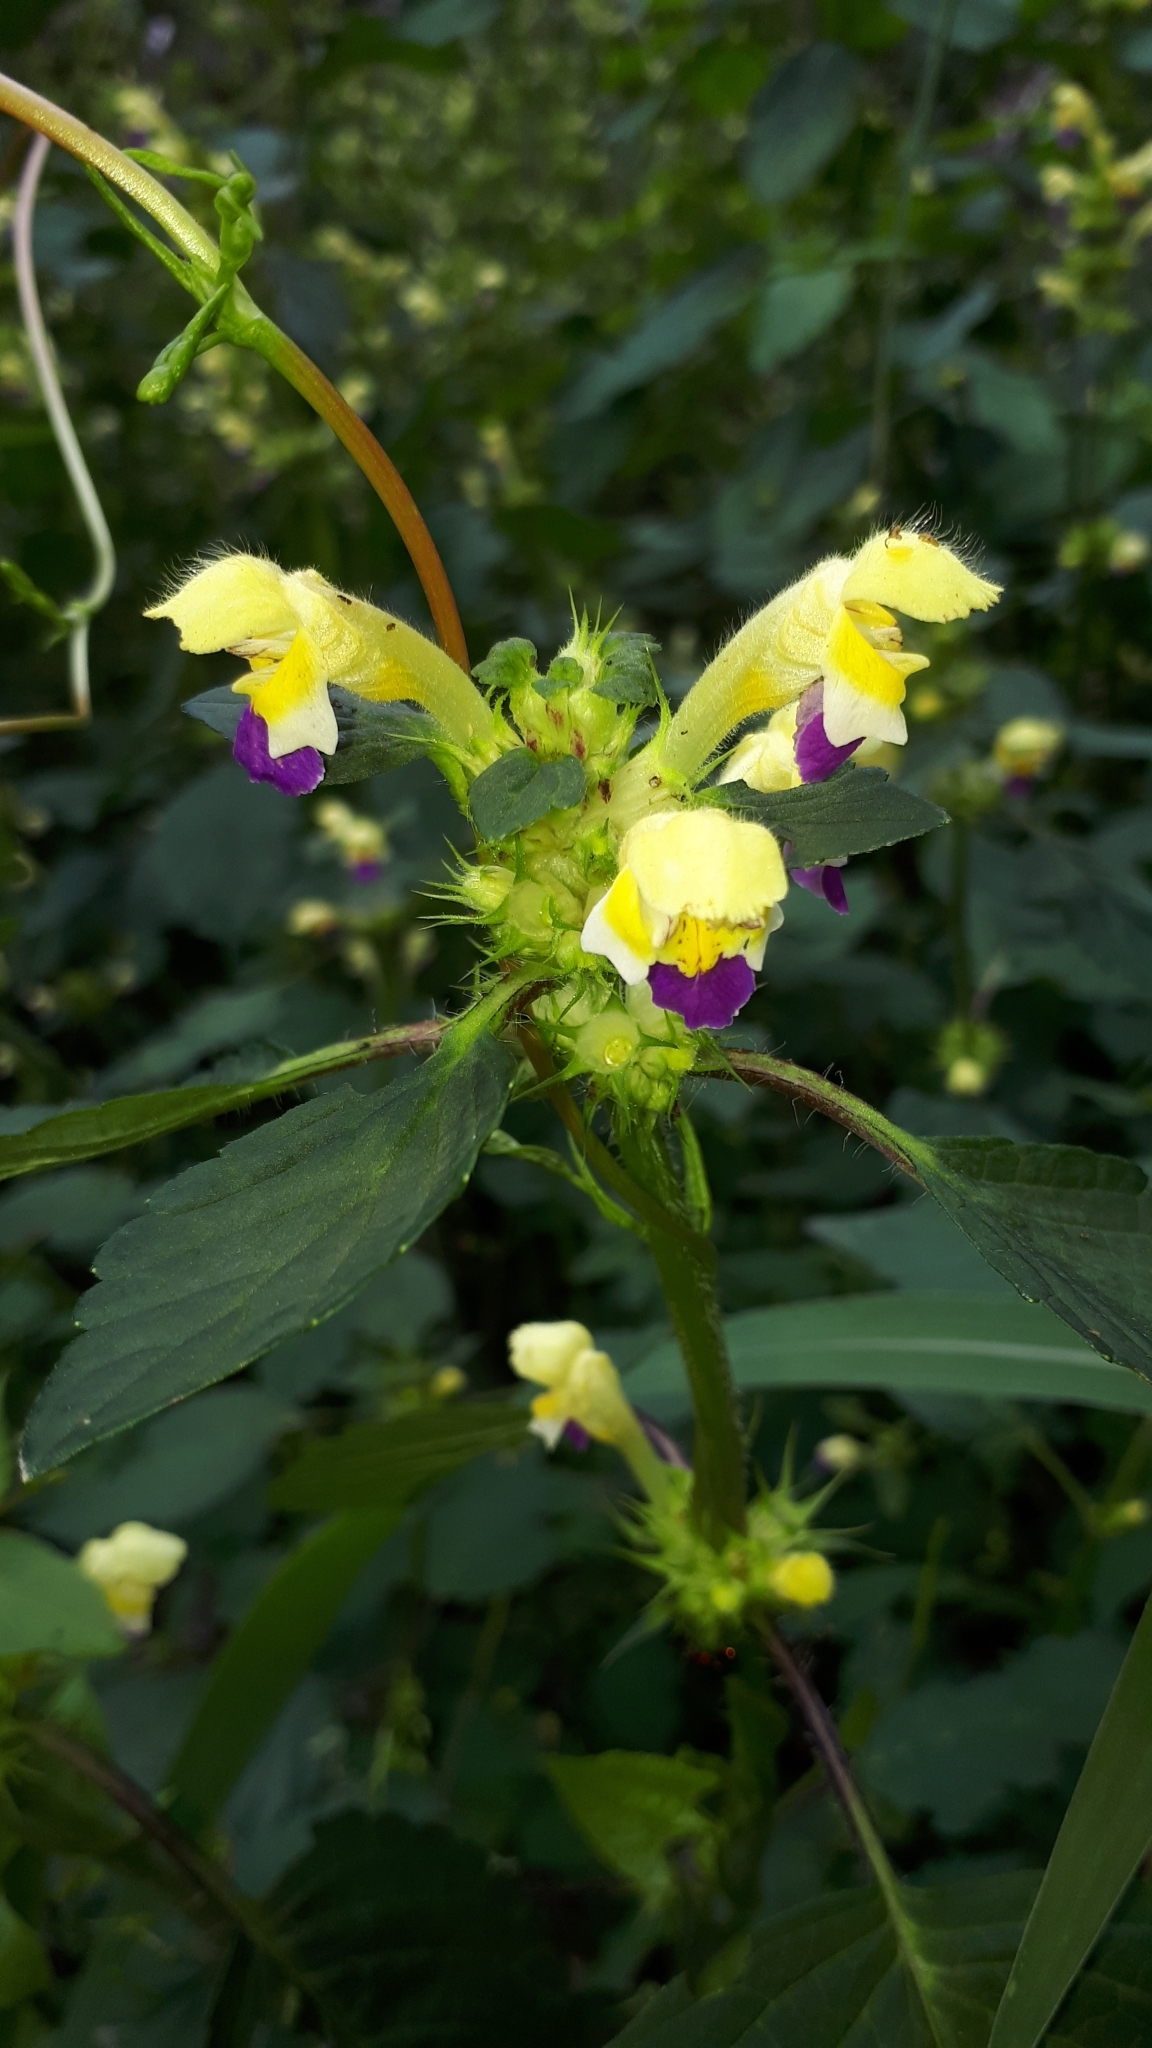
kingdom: Plantae
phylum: Tracheophyta
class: Magnoliopsida
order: Lamiales
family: Lamiaceae
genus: Galeopsis
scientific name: Galeopsis speciosa
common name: Large-flowered hemp-nettle
